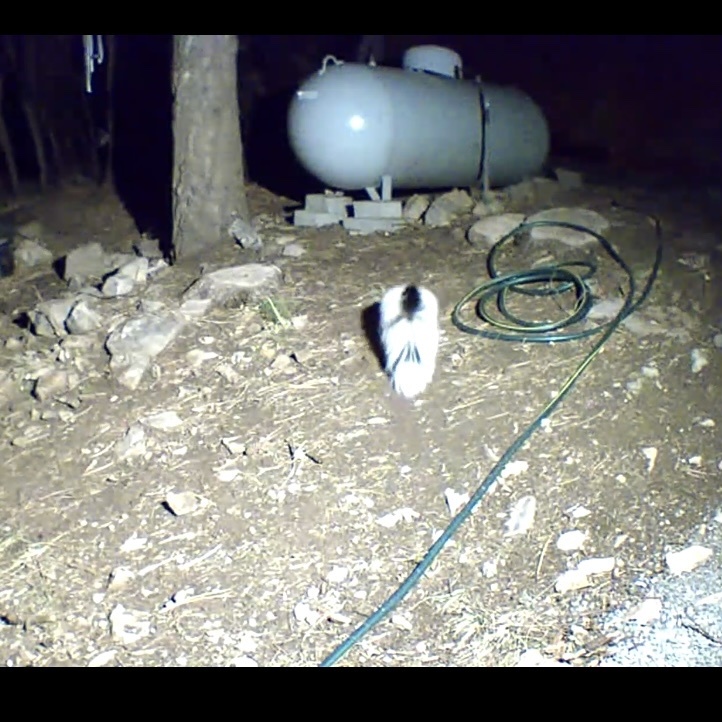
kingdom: Animalia
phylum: Chordata
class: Mammalia
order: Carnivora
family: Mephitidae
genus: Mephitis
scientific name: Mephitis mephitis
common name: Striped skunk
